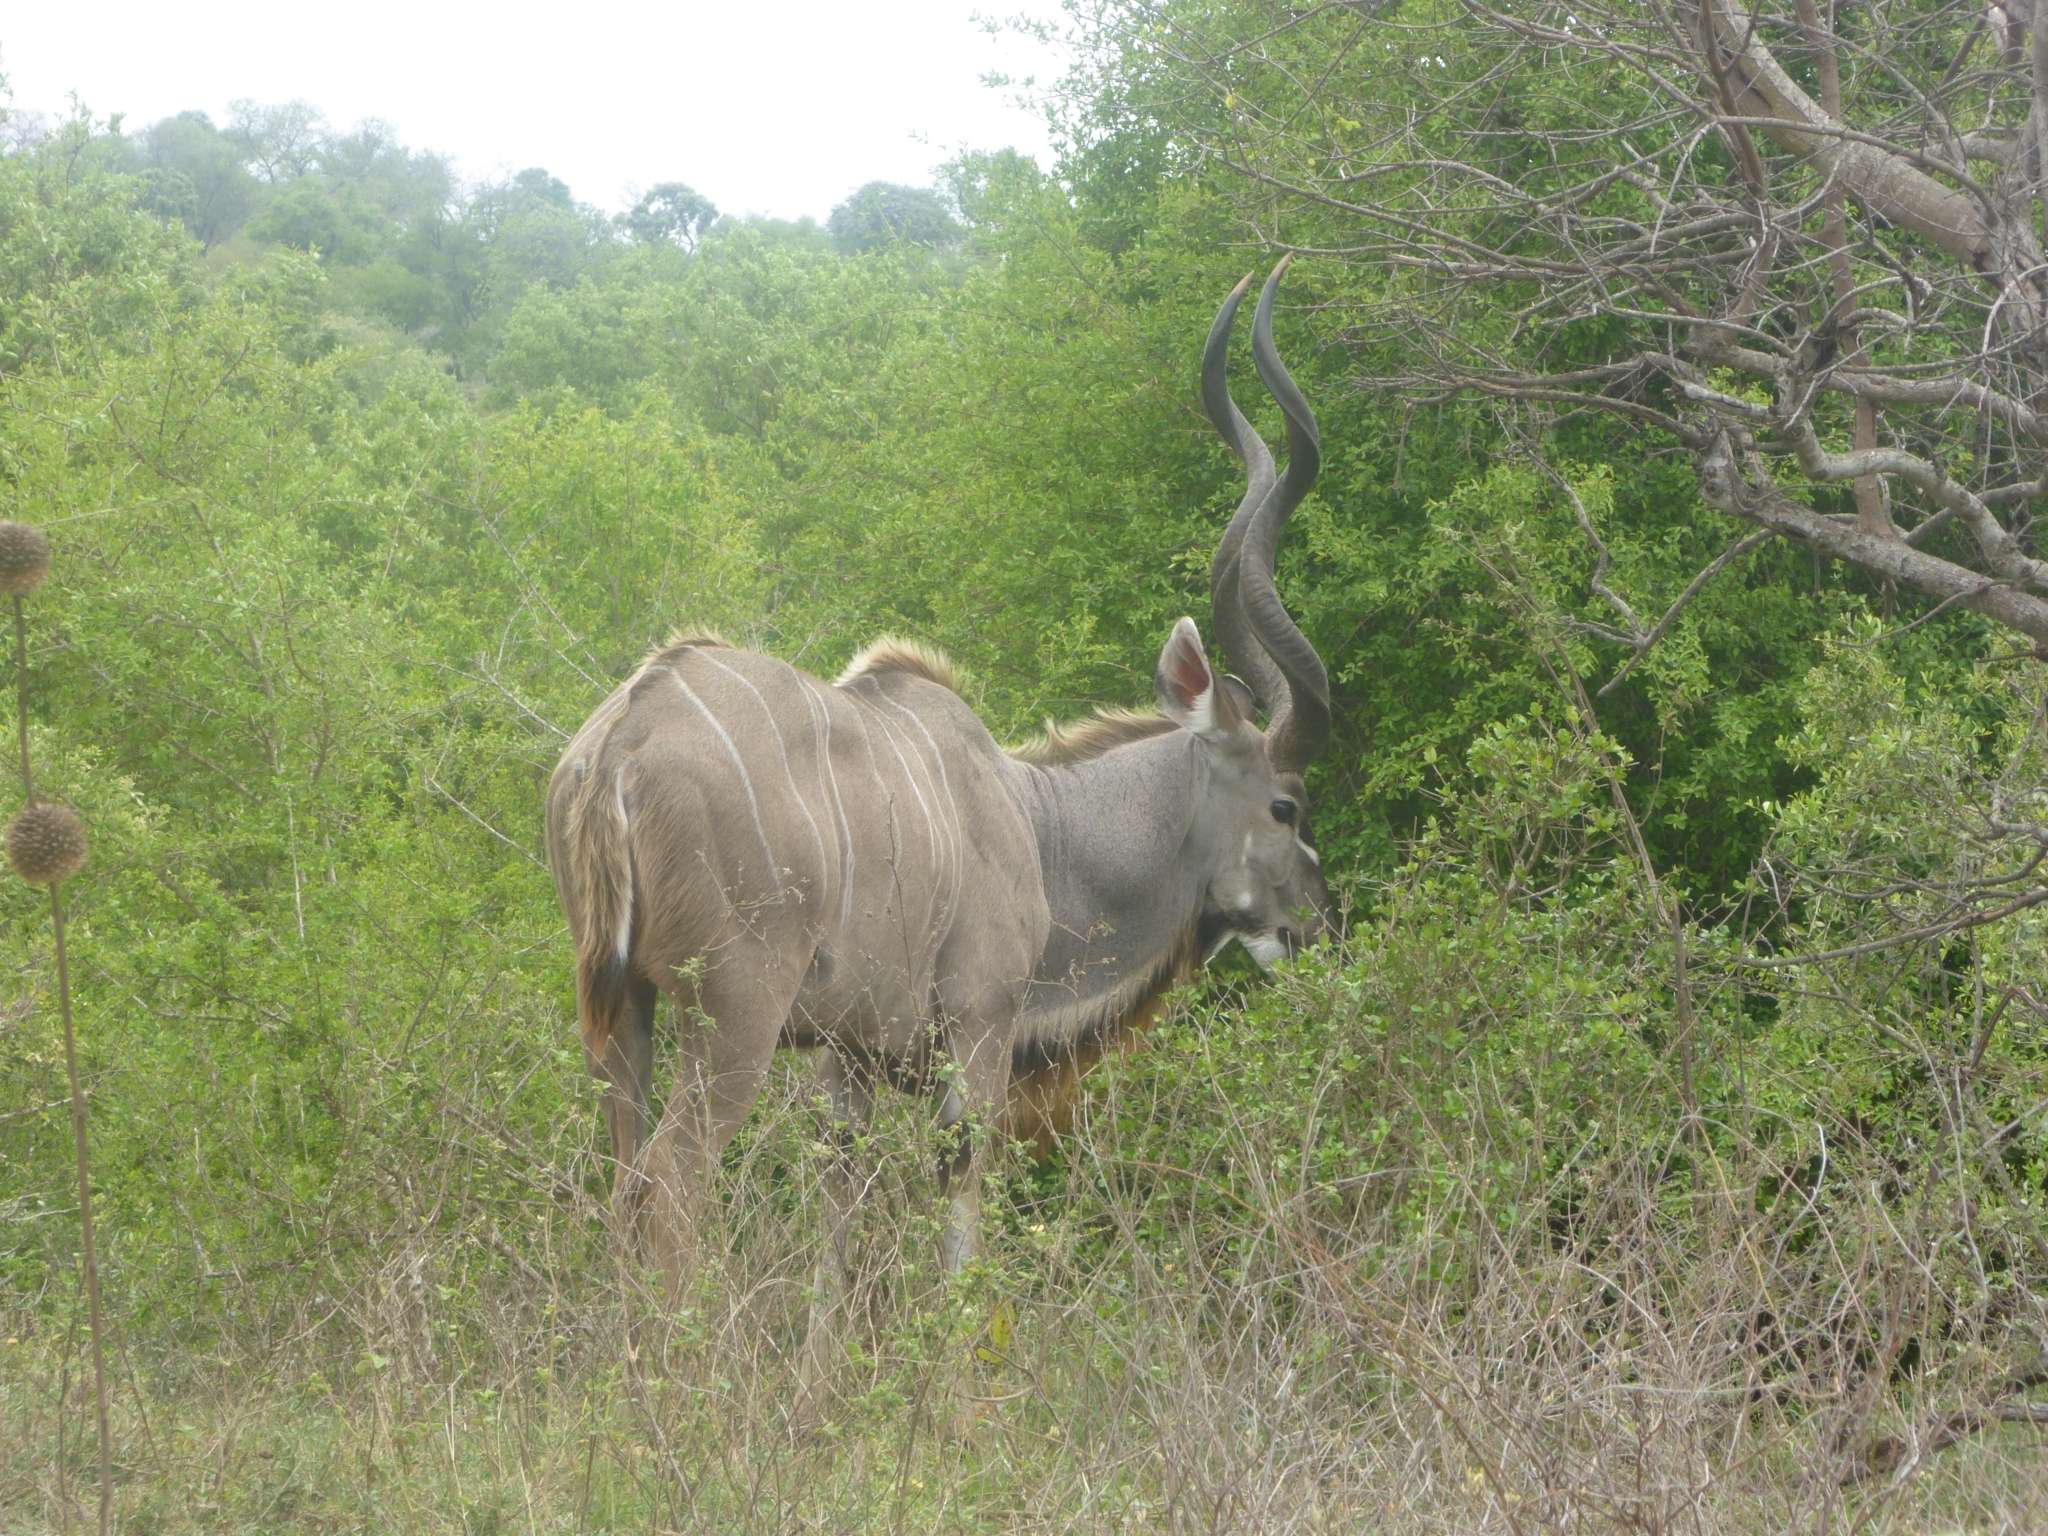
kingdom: Animalia
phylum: Chordata
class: Mammalia
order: Artiodactyla
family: Bovidae
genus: Tragelaphus
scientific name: Tragelaphus strepsiceros
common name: Greater kudu
